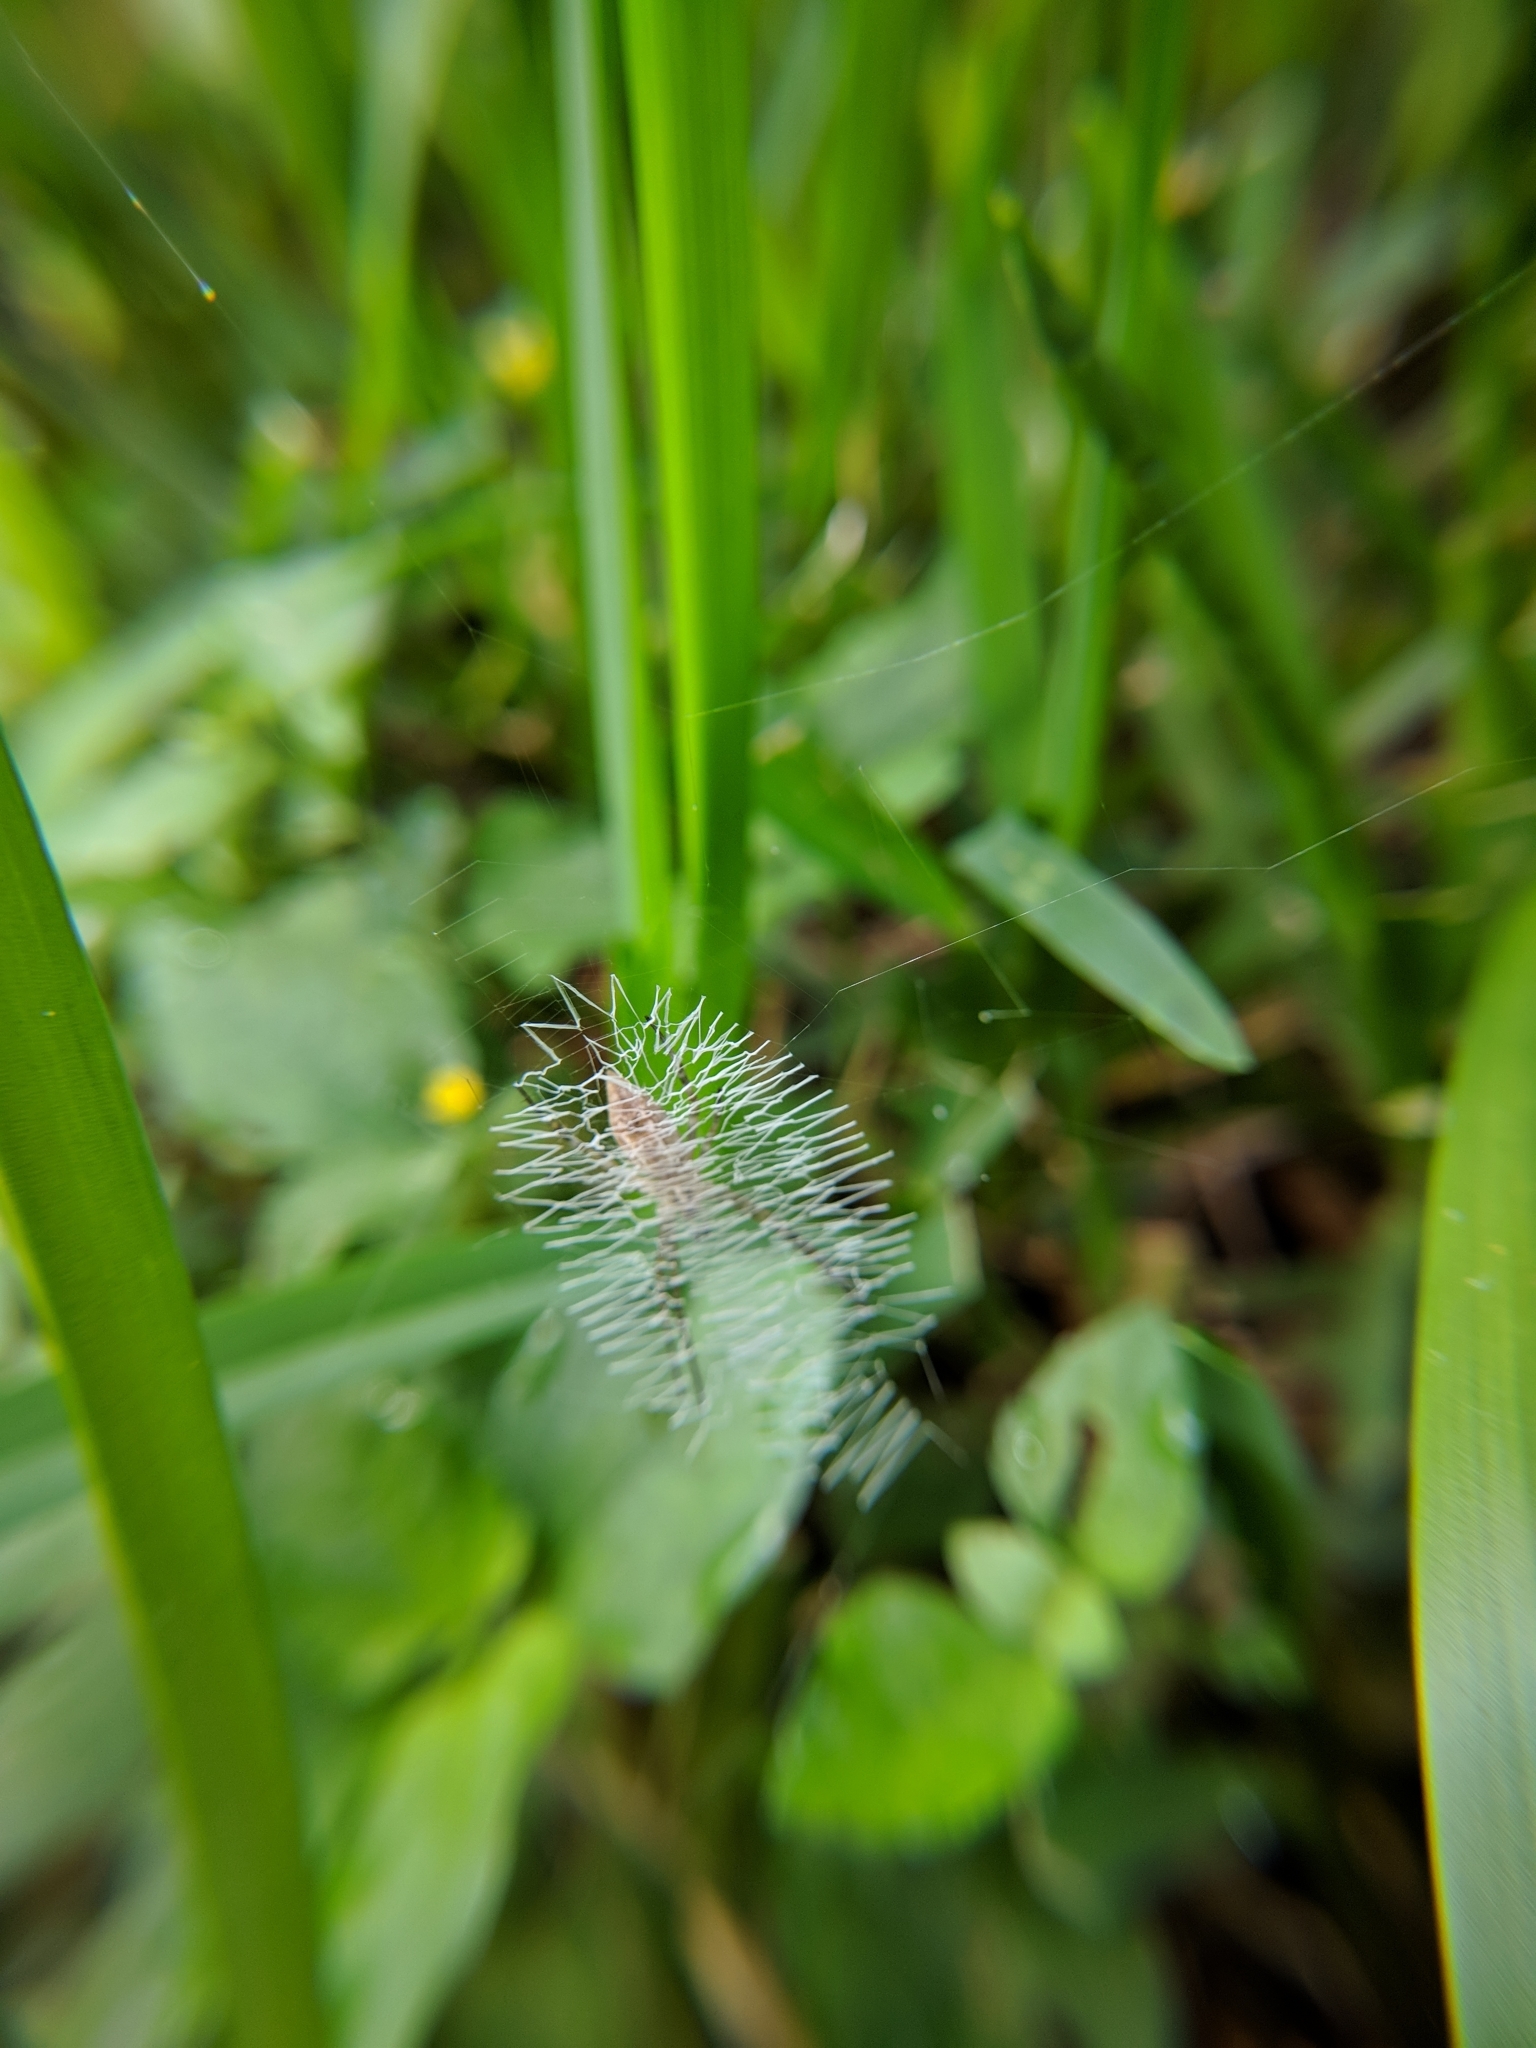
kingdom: Animalia
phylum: Arthropoda
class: Arachnida
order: Araneae
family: Araneidae
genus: Argiope
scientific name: Argiope aurantia
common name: Orb weavers
